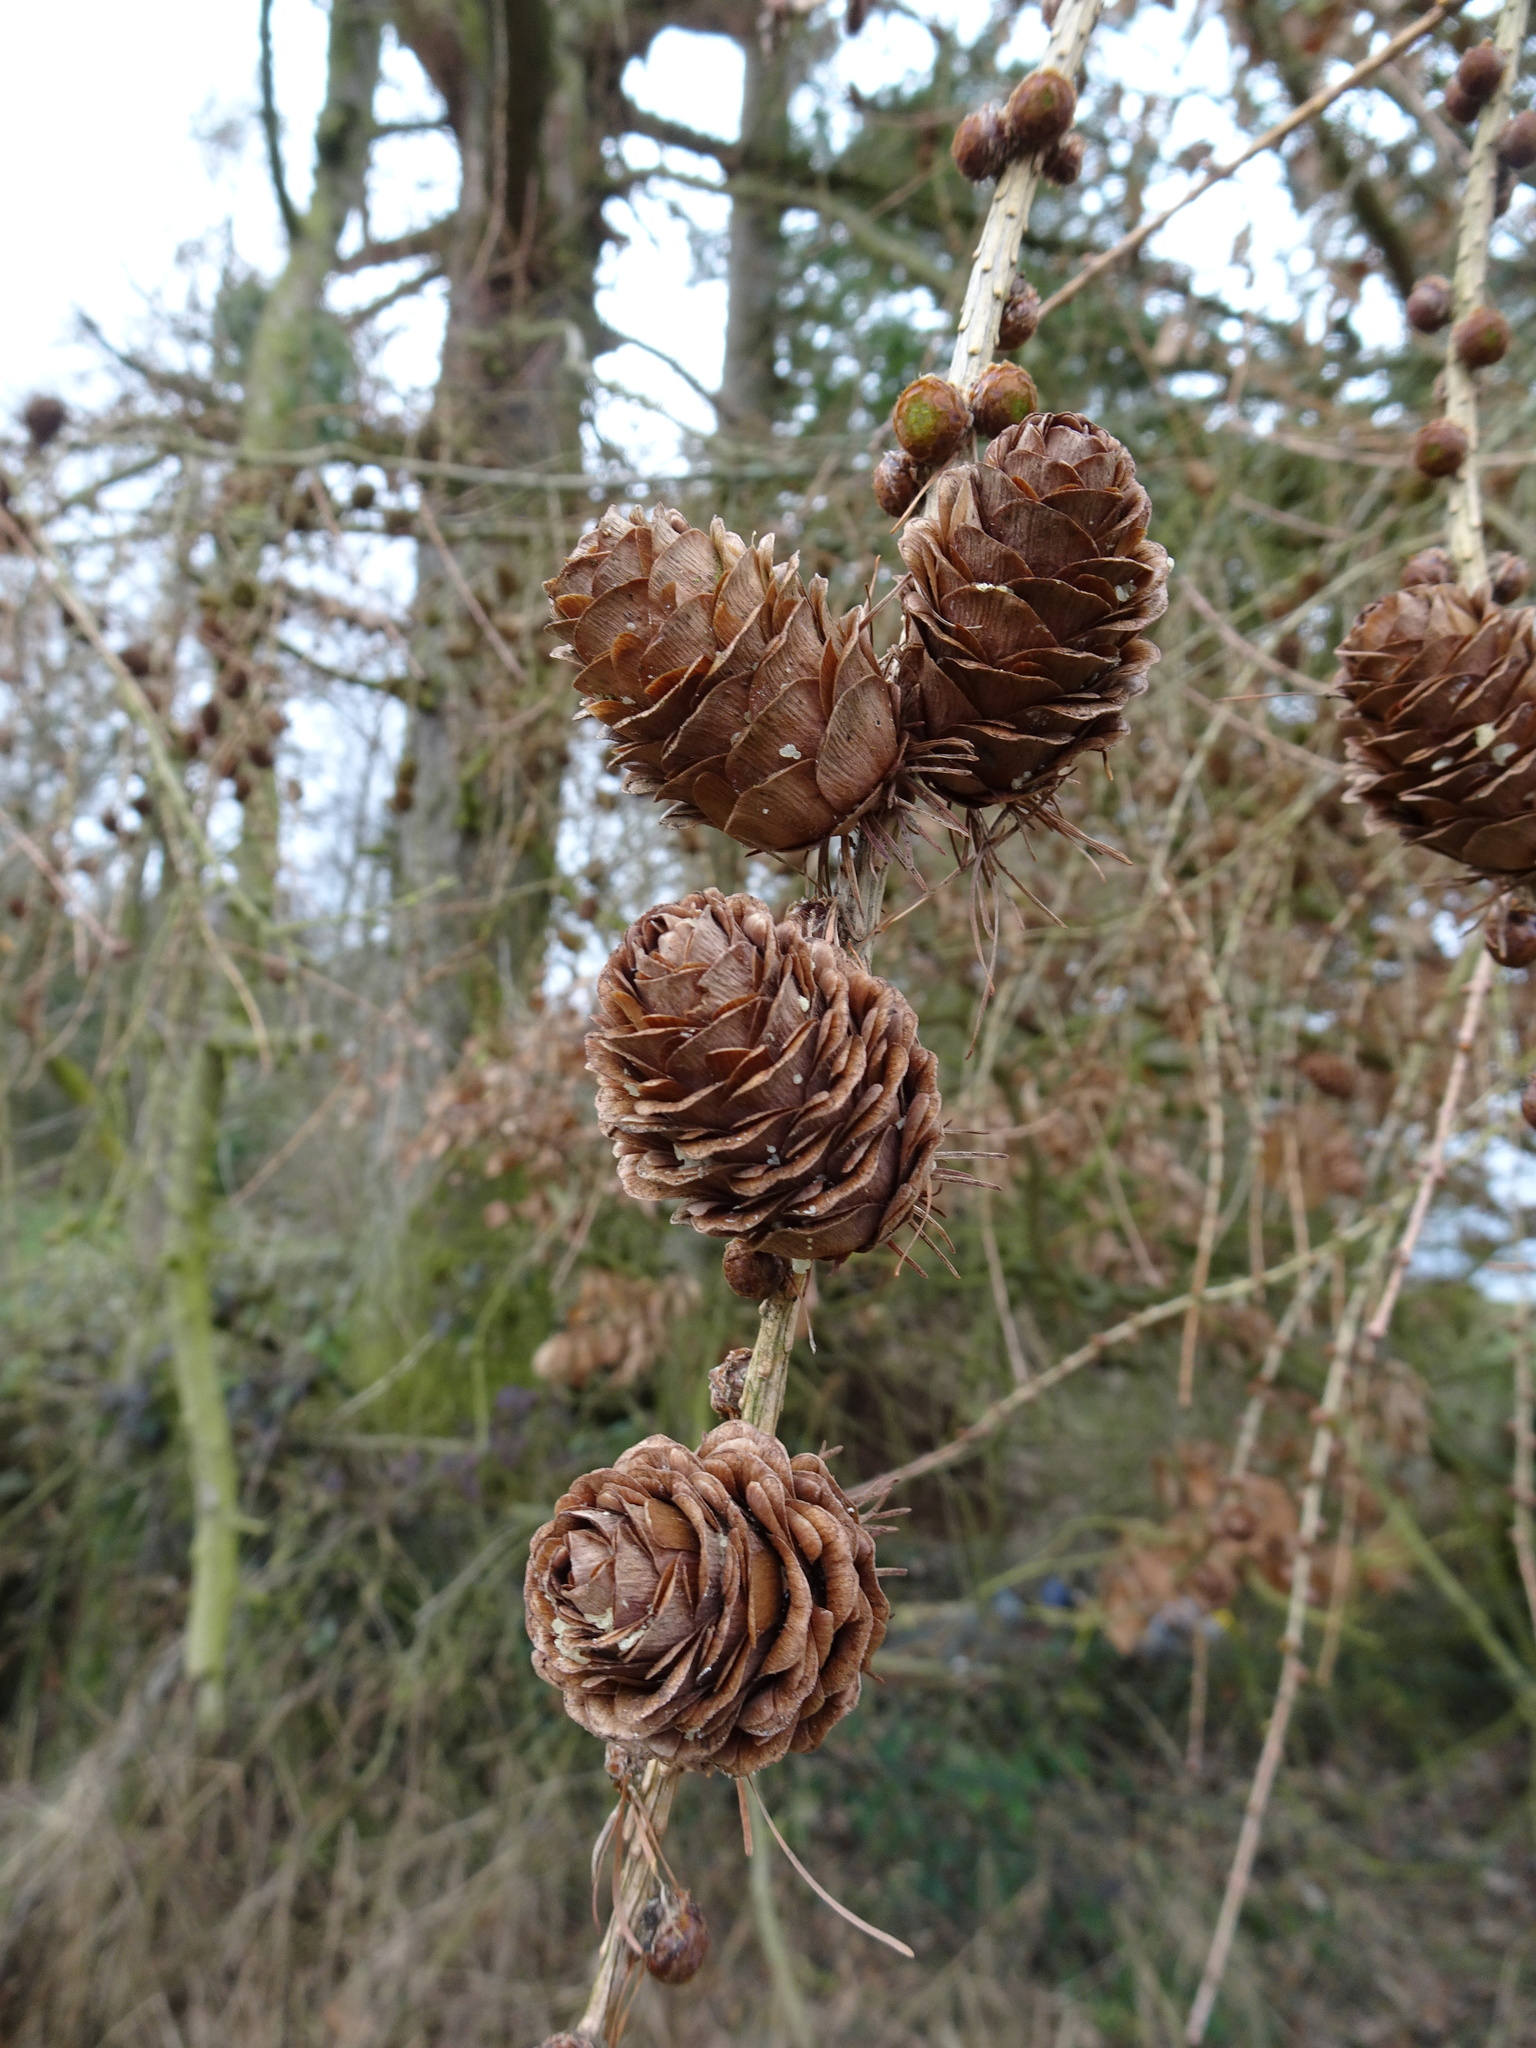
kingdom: Plantae
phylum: Tracheophyta
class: Pinopsida
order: Pinales
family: Pinaceae
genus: Larix
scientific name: Larix decidua
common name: European larch
